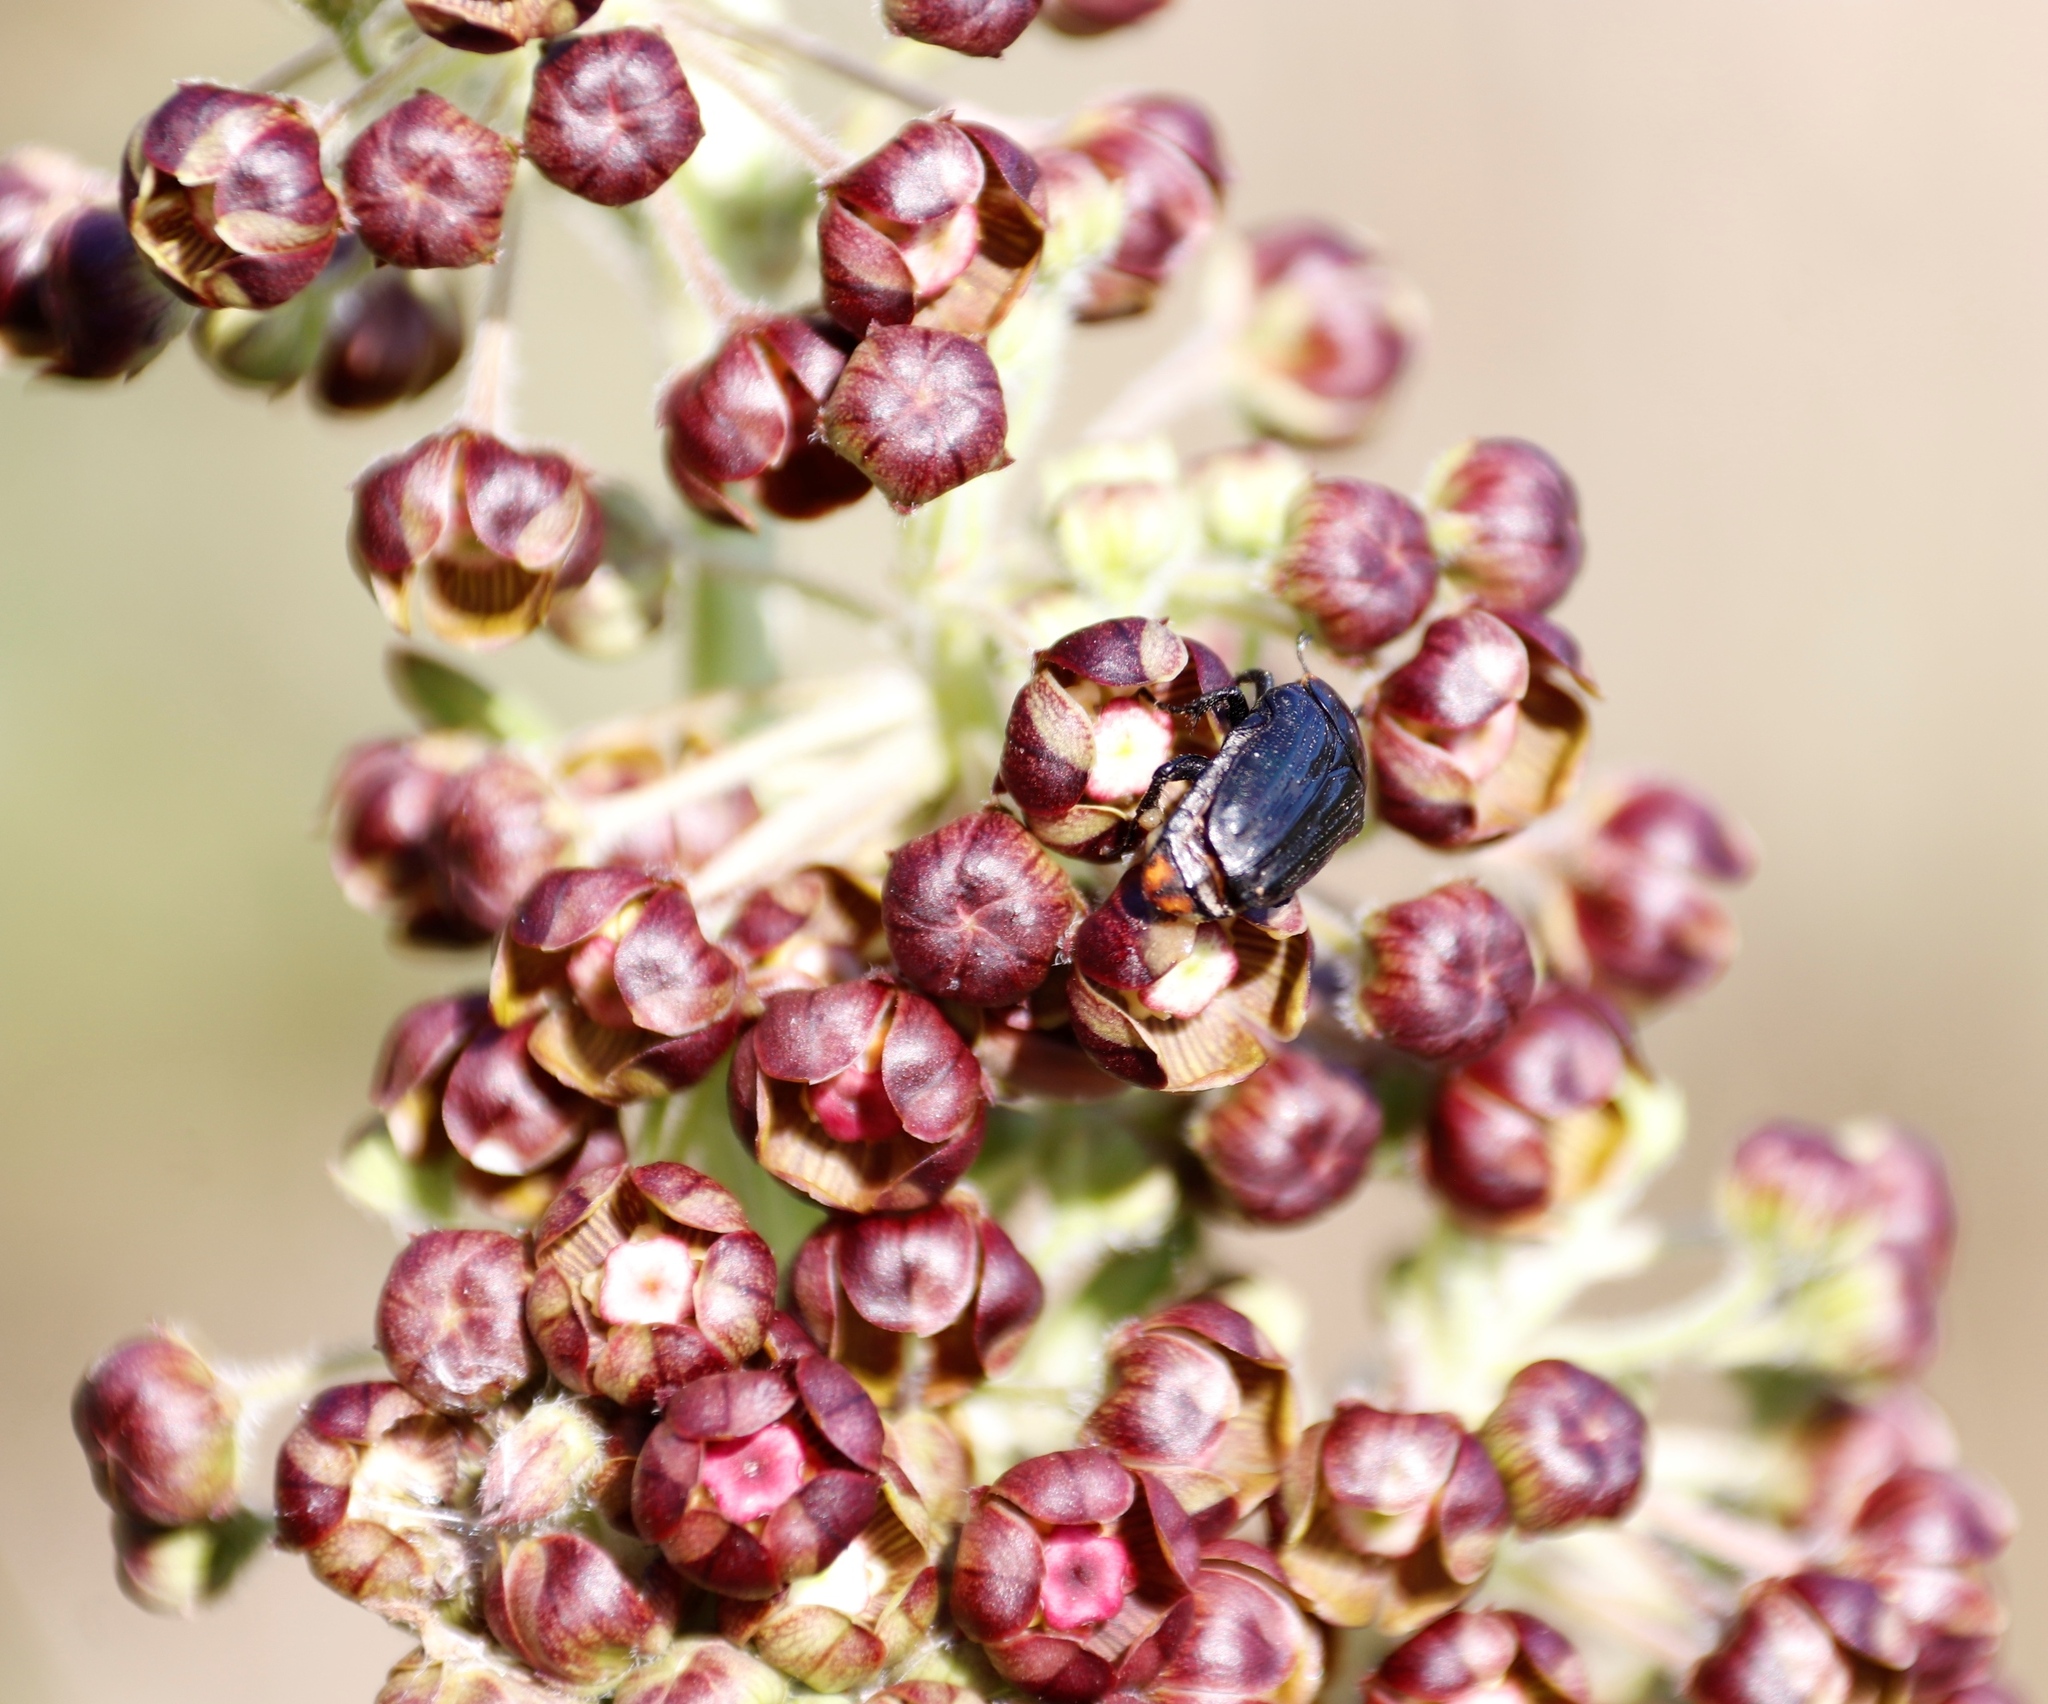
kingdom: Animalia
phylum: Arthropoda
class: Insecta
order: Coleoptera
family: Scarabaeidae
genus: Oxythyrea
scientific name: Oxythyrea
